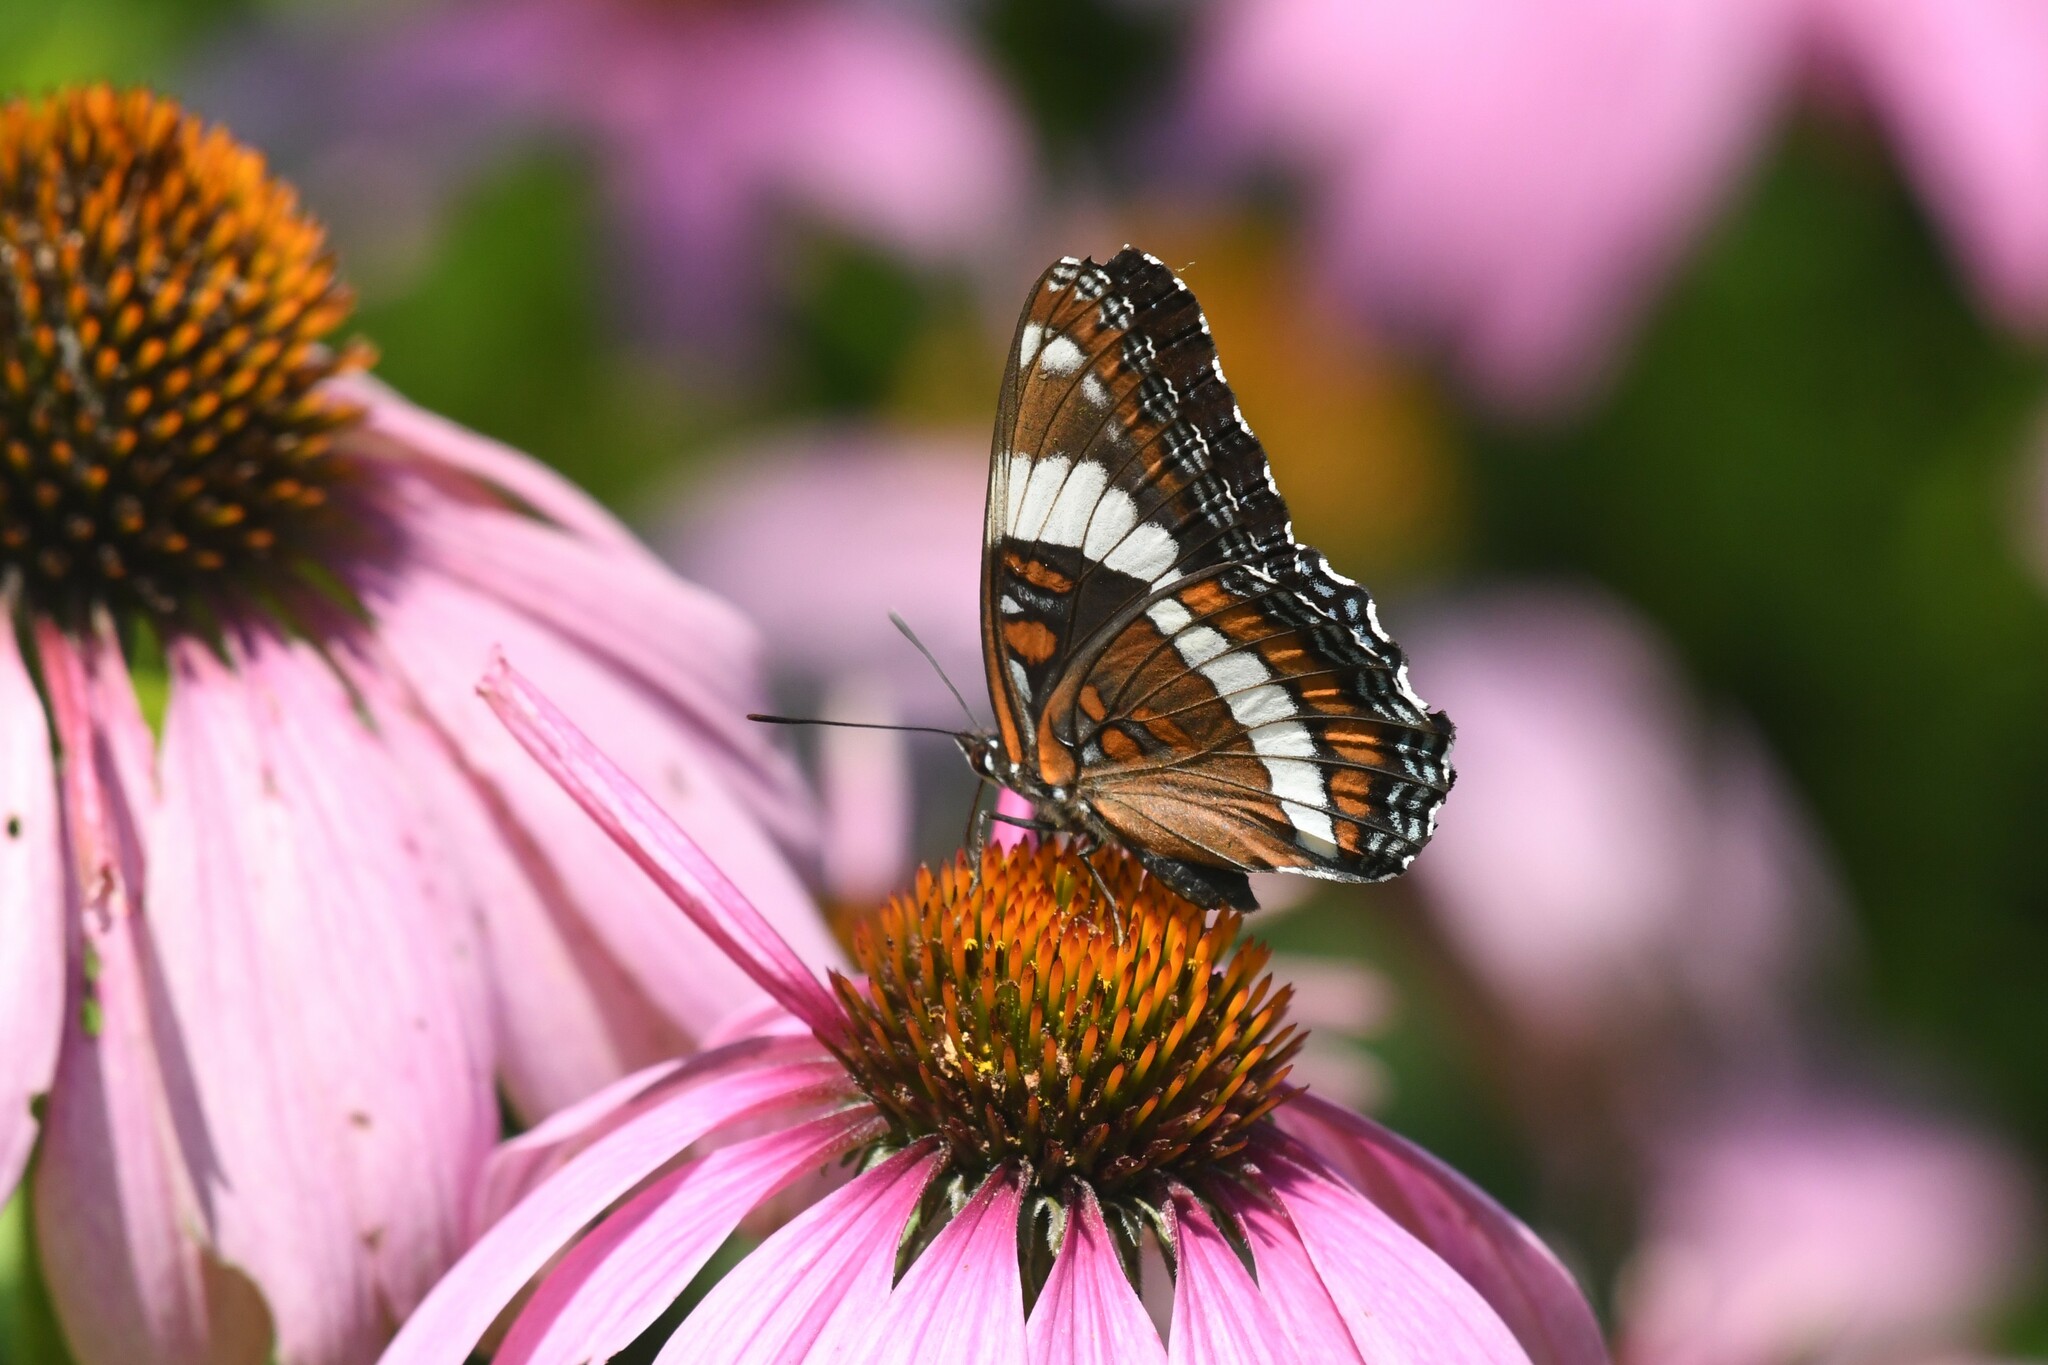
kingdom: Animalia
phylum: Arthropoda
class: Insecta
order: Lepidoptera
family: Nymphalidae
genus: Limenitis
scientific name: Limenitis arthemis
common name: Red-spotted admiral
